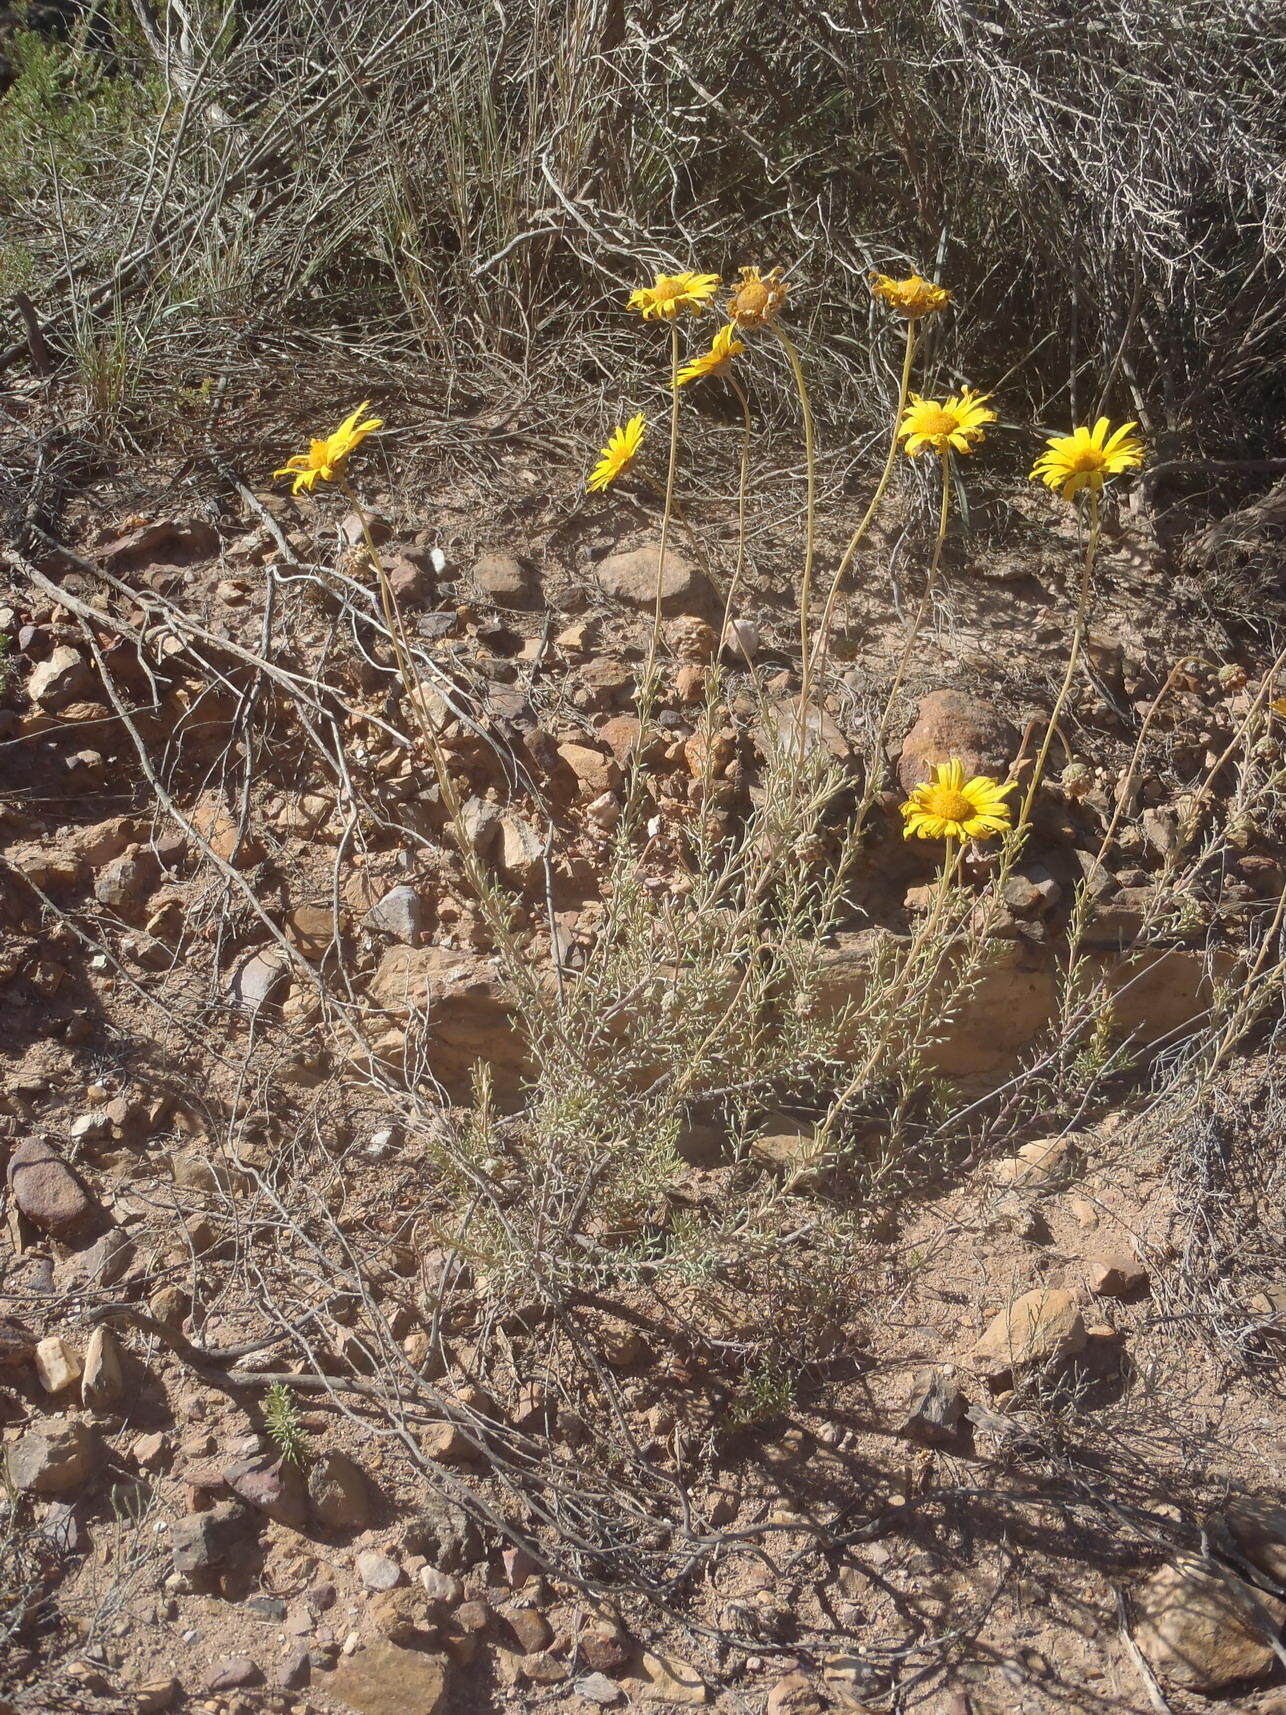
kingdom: Plantae
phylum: Tracheophyta
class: Magnoliopsida
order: Asterales
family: Asteraceae
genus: Ursinia
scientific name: Ursinia trifida
